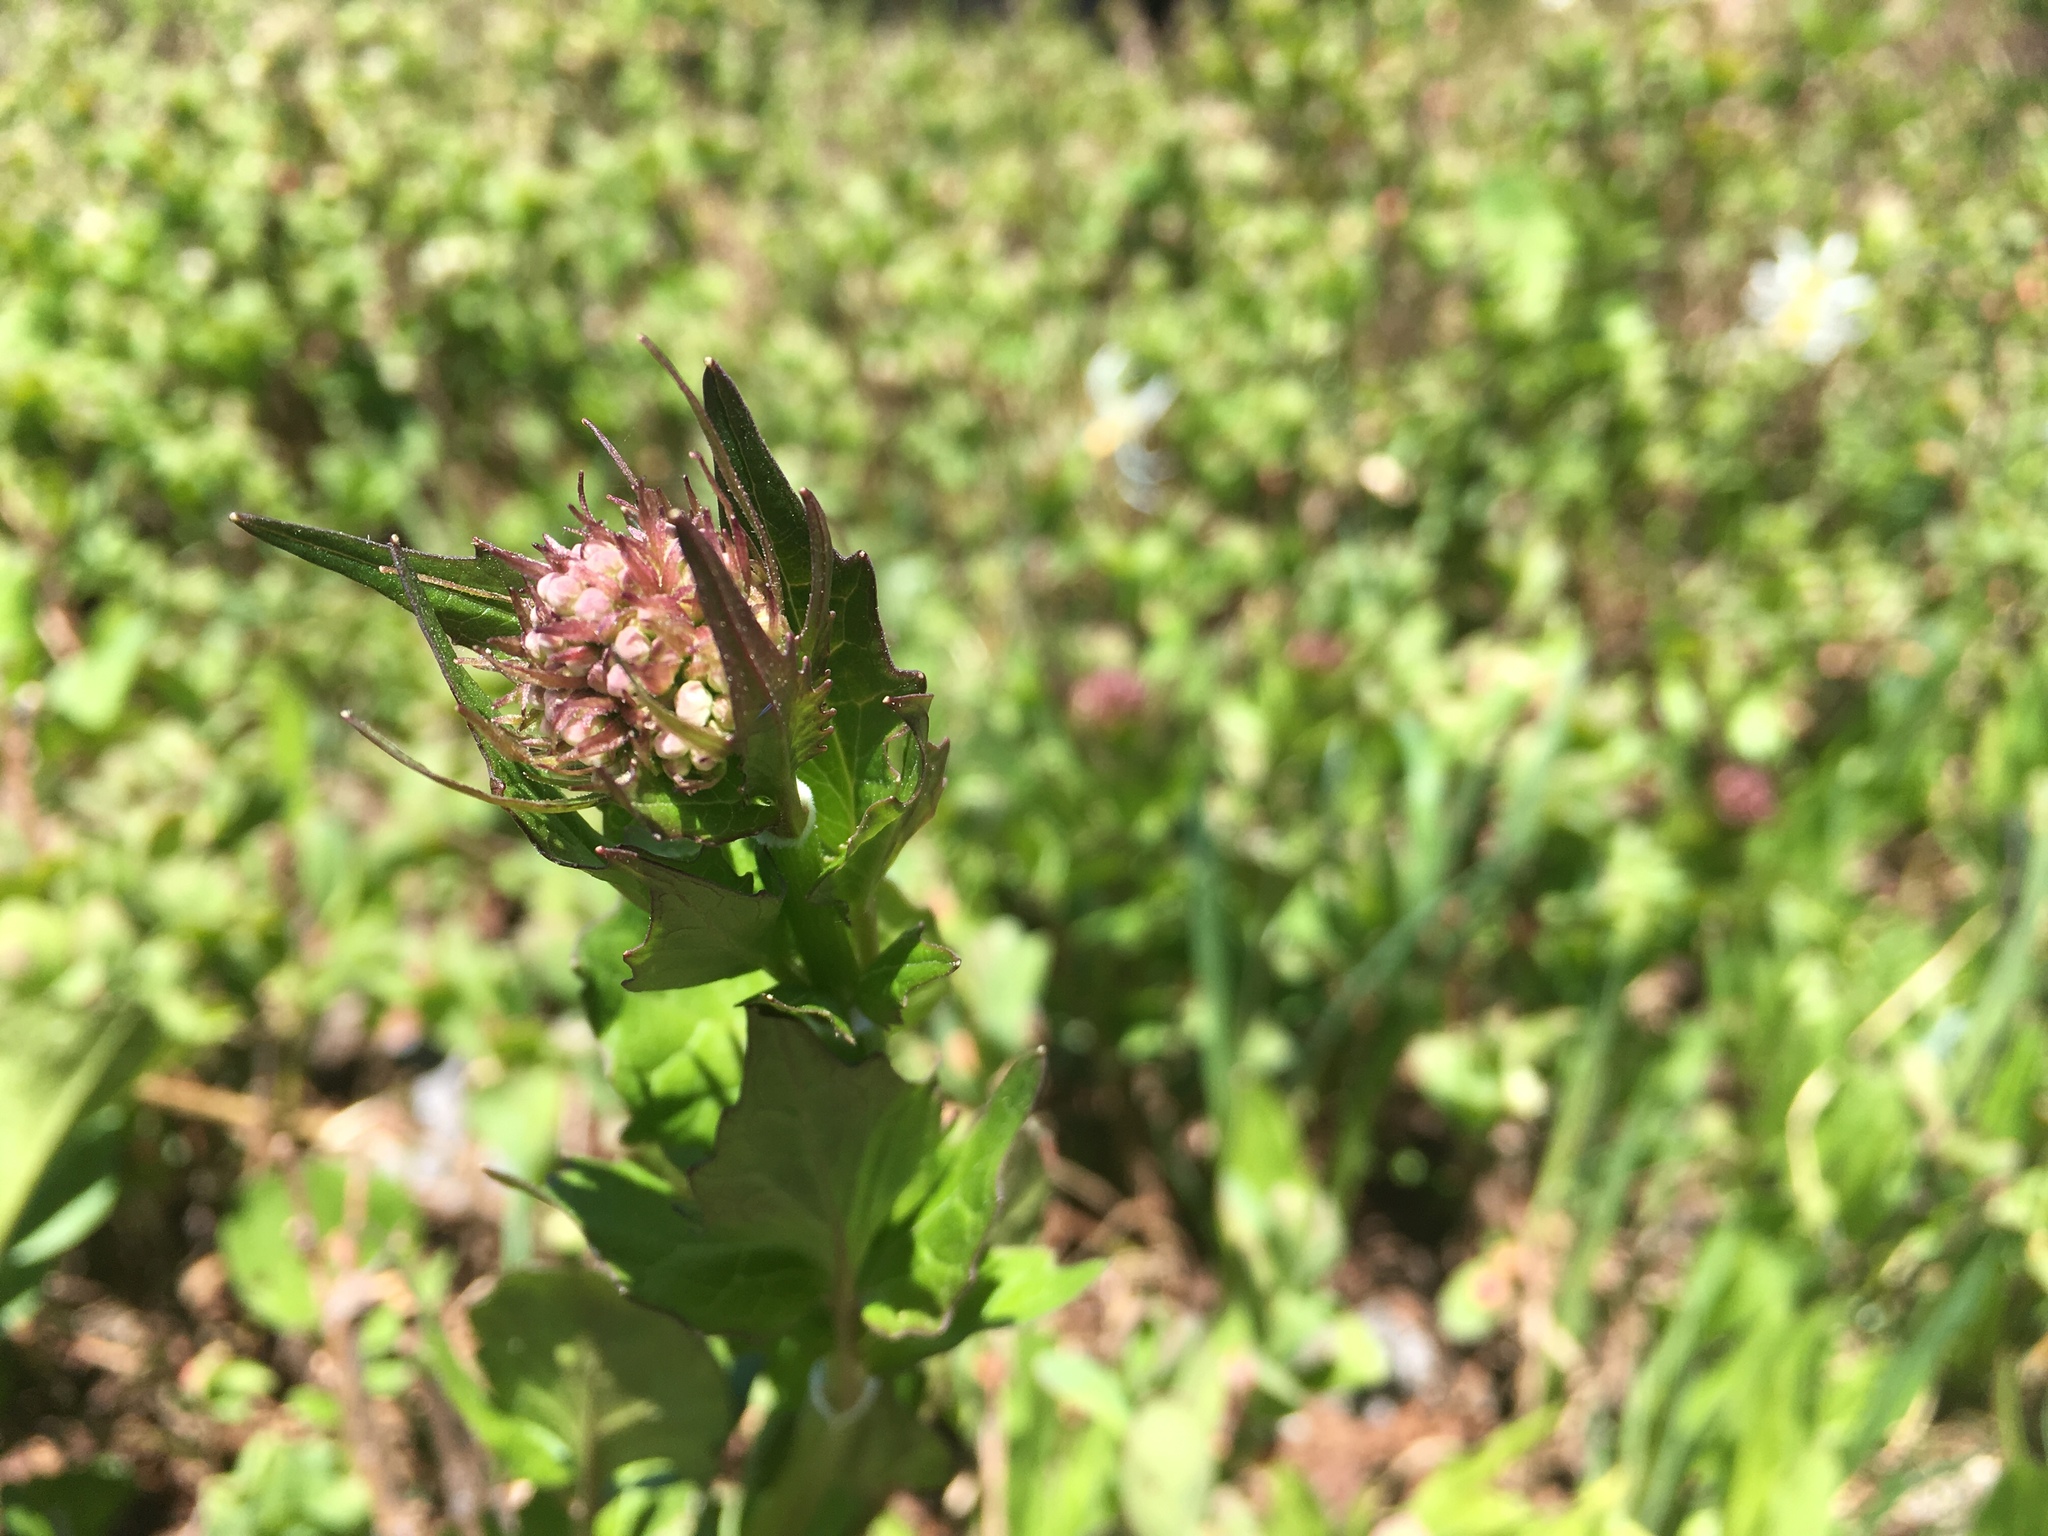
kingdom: Plantae
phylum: Tracheophyta
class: Magnoliopsida
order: Dipsacales
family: Caprifoliaceae
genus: Valeriana
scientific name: Valeriana sitchensis
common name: Pacific valerian
